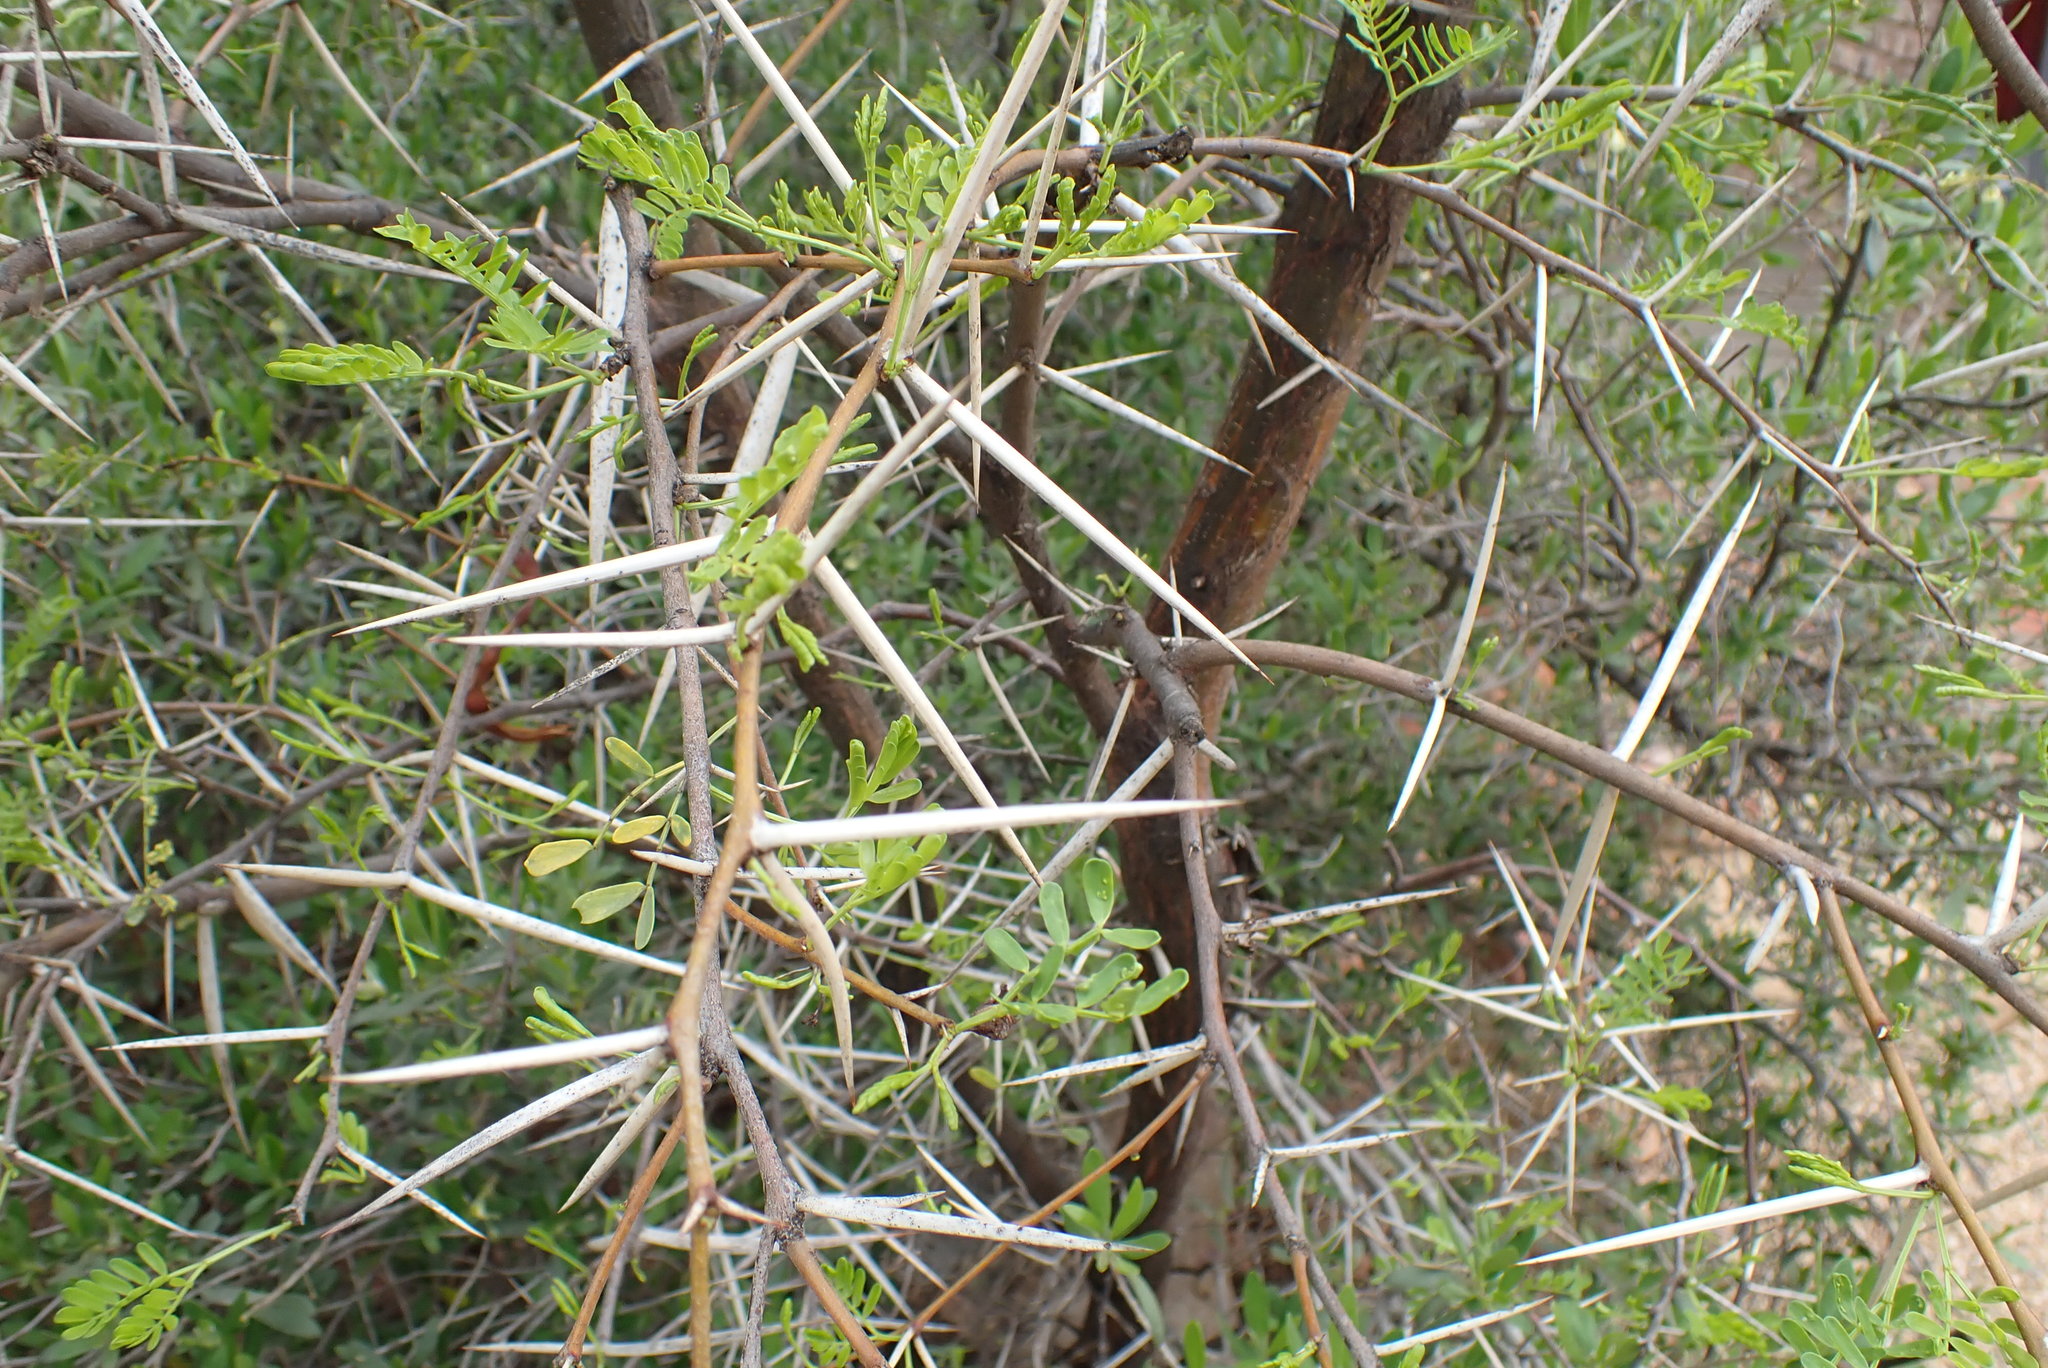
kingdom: Plantae
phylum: Tracheophyta
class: Magnoliopsida
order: Fabales
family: Fabaceae
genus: Vachellia
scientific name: Vachellia karroo
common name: Sweet thorn
